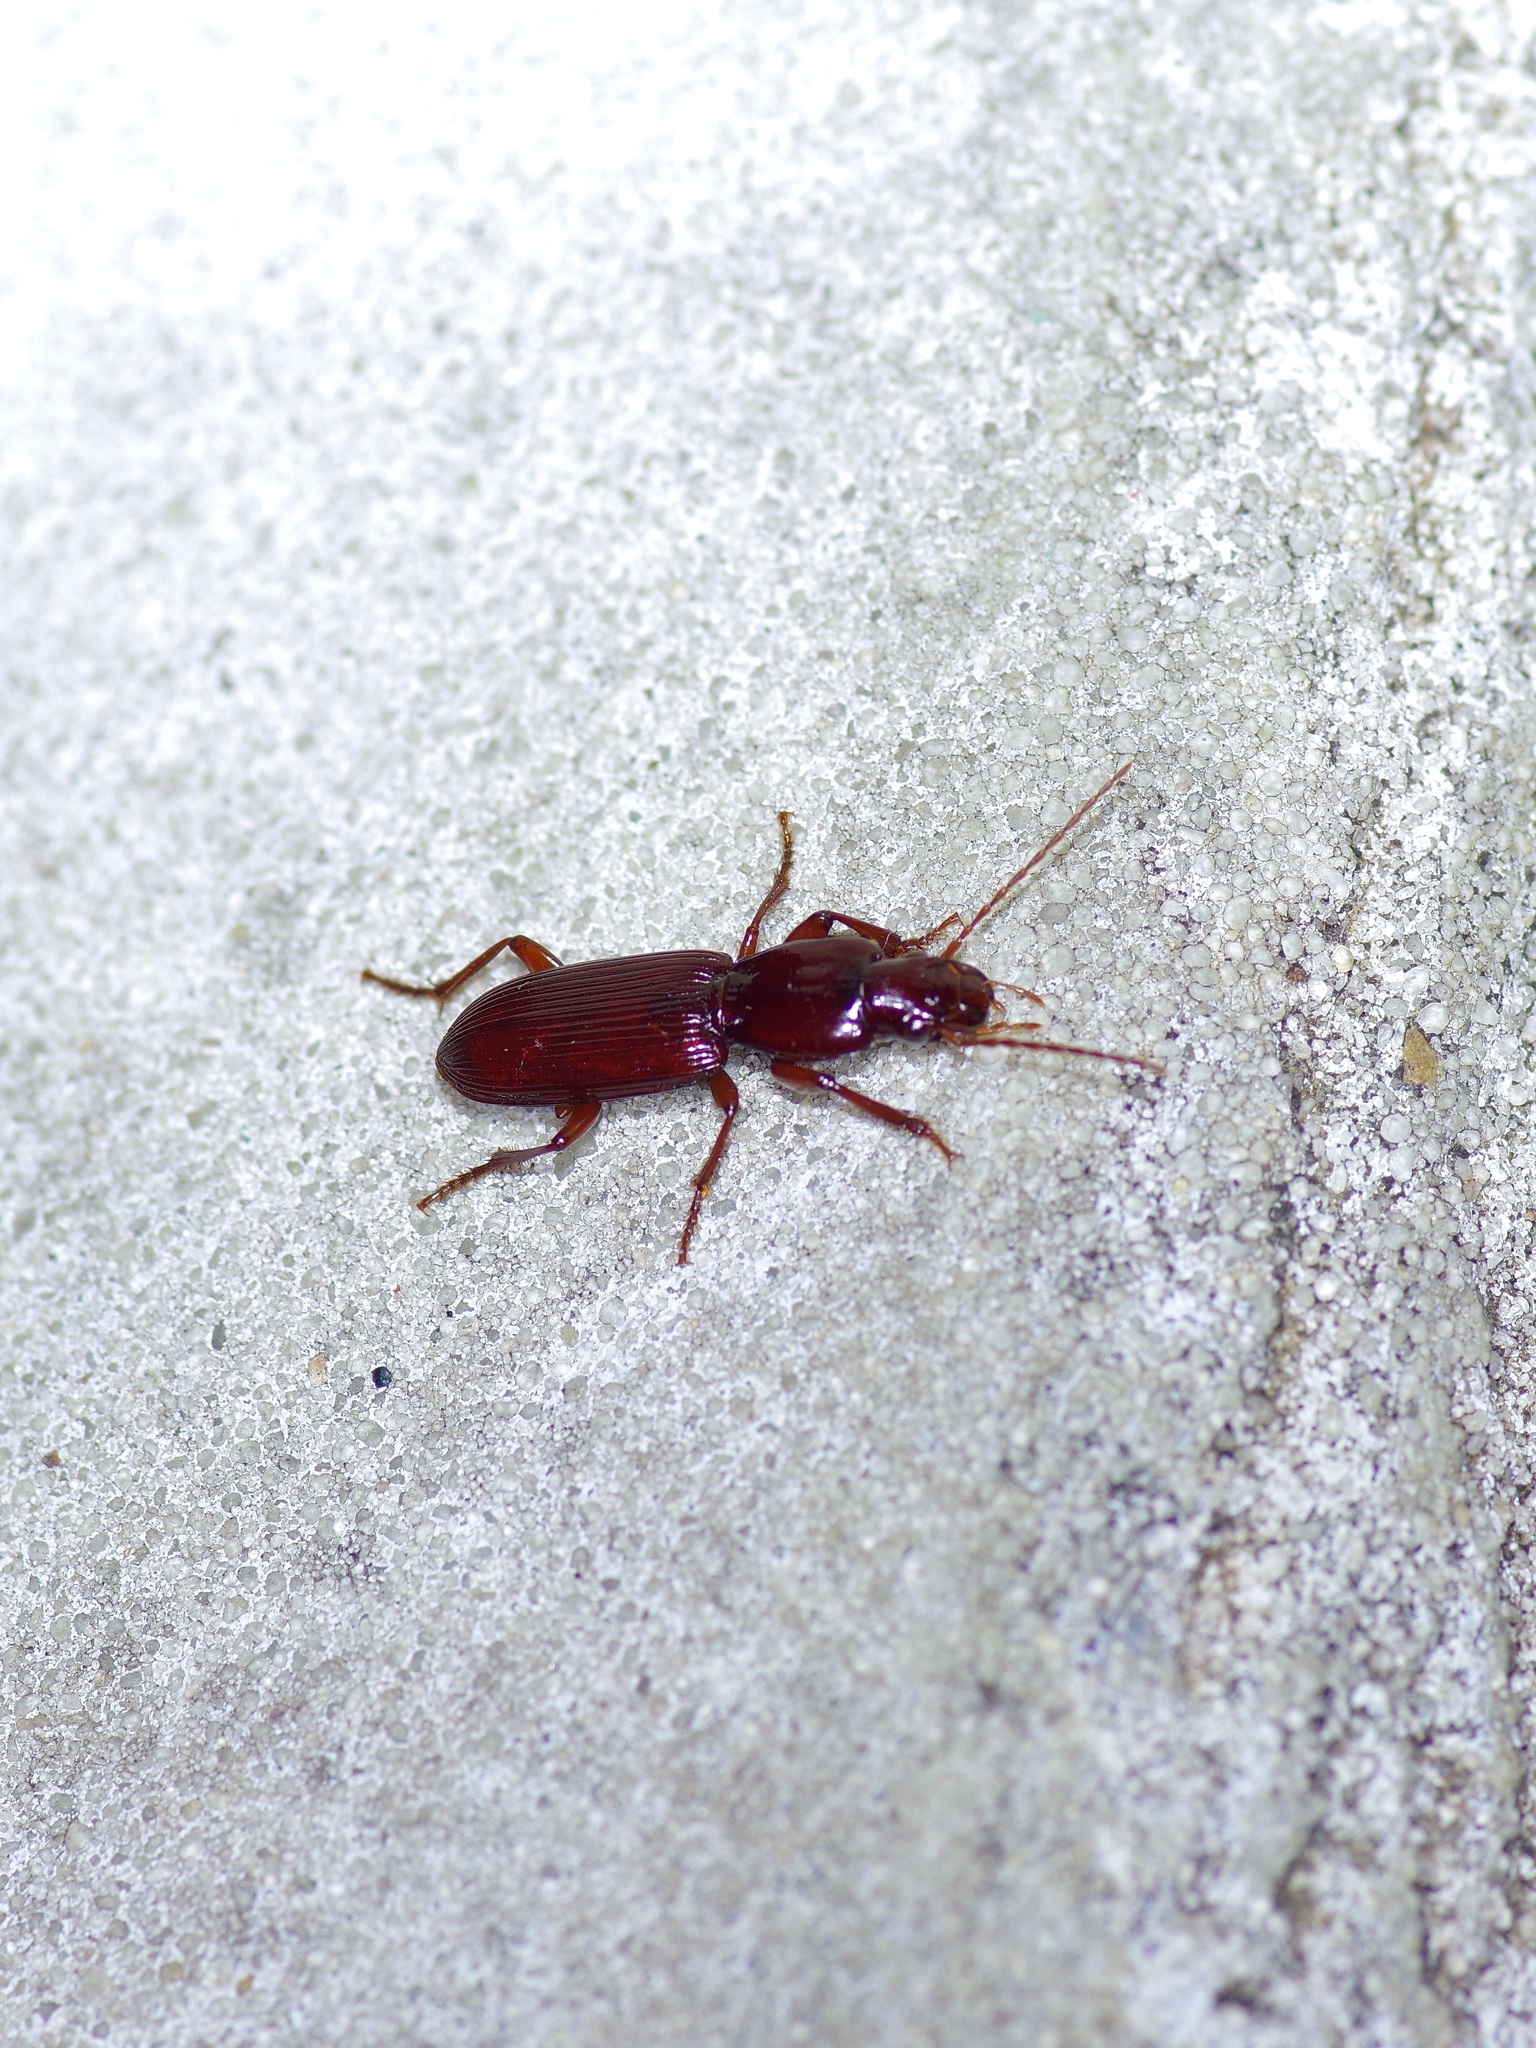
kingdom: Animalia
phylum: Arthropoda
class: Insecta
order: Coleoptera
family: Carabidae
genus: Stenomorphus
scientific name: Stenomorphus californicus
